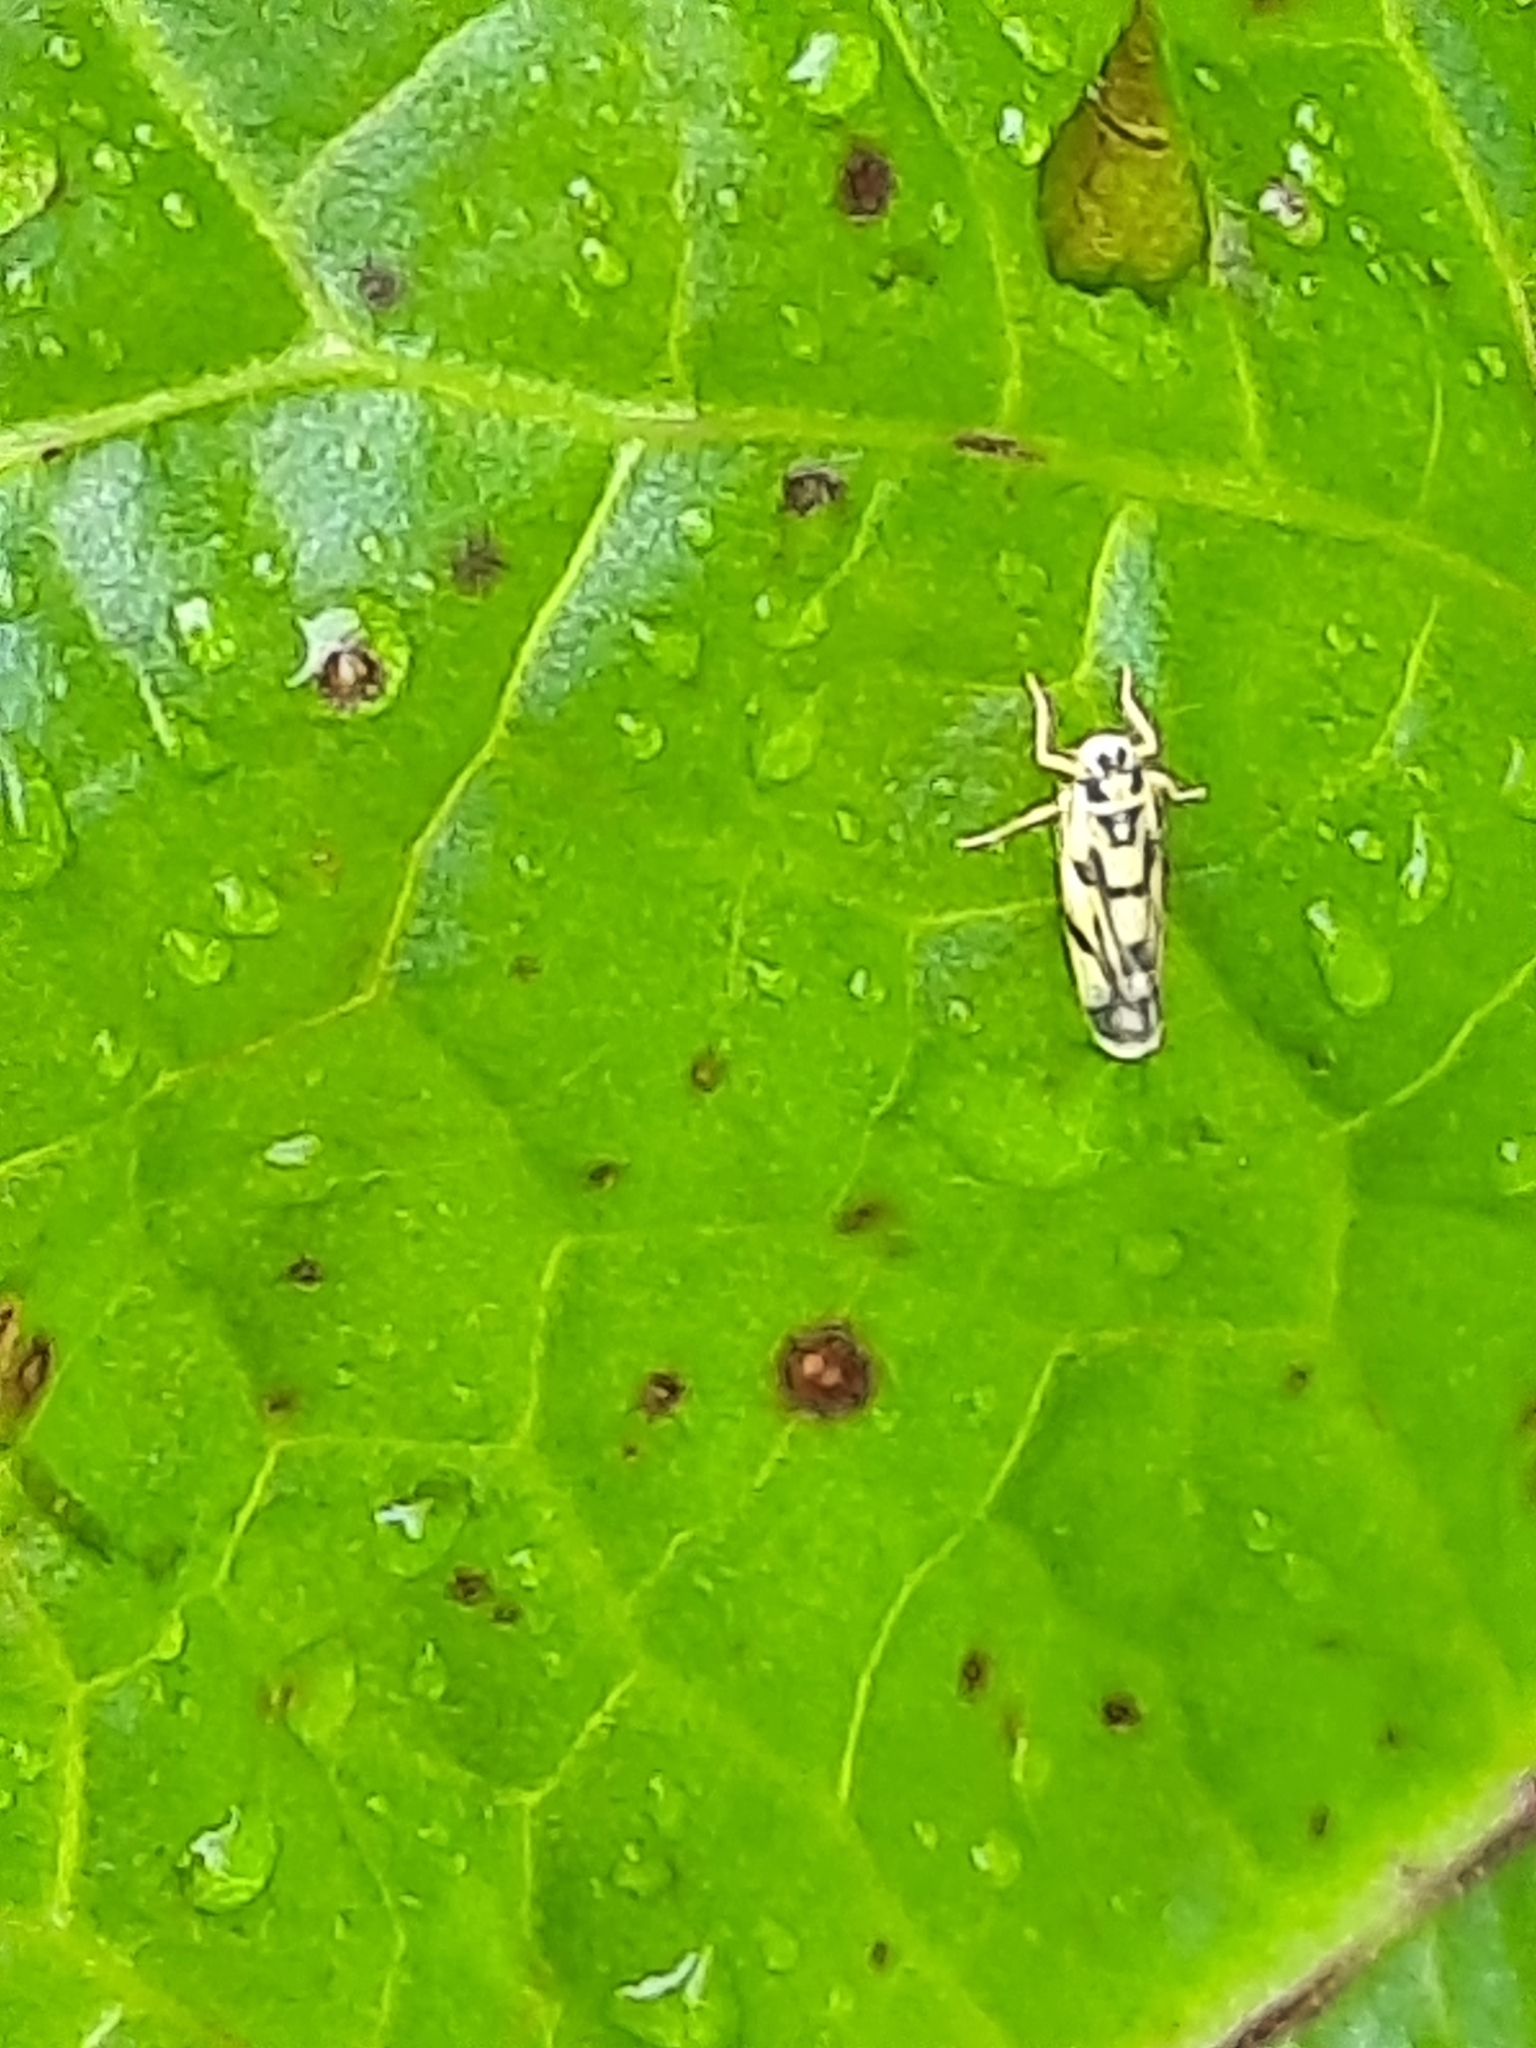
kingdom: Animalia
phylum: Arthropoda
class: Insecta
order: Hemiptera
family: Cicadellidae
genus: Eupteryx
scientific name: Eupteryx aurata
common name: Leafhopper
